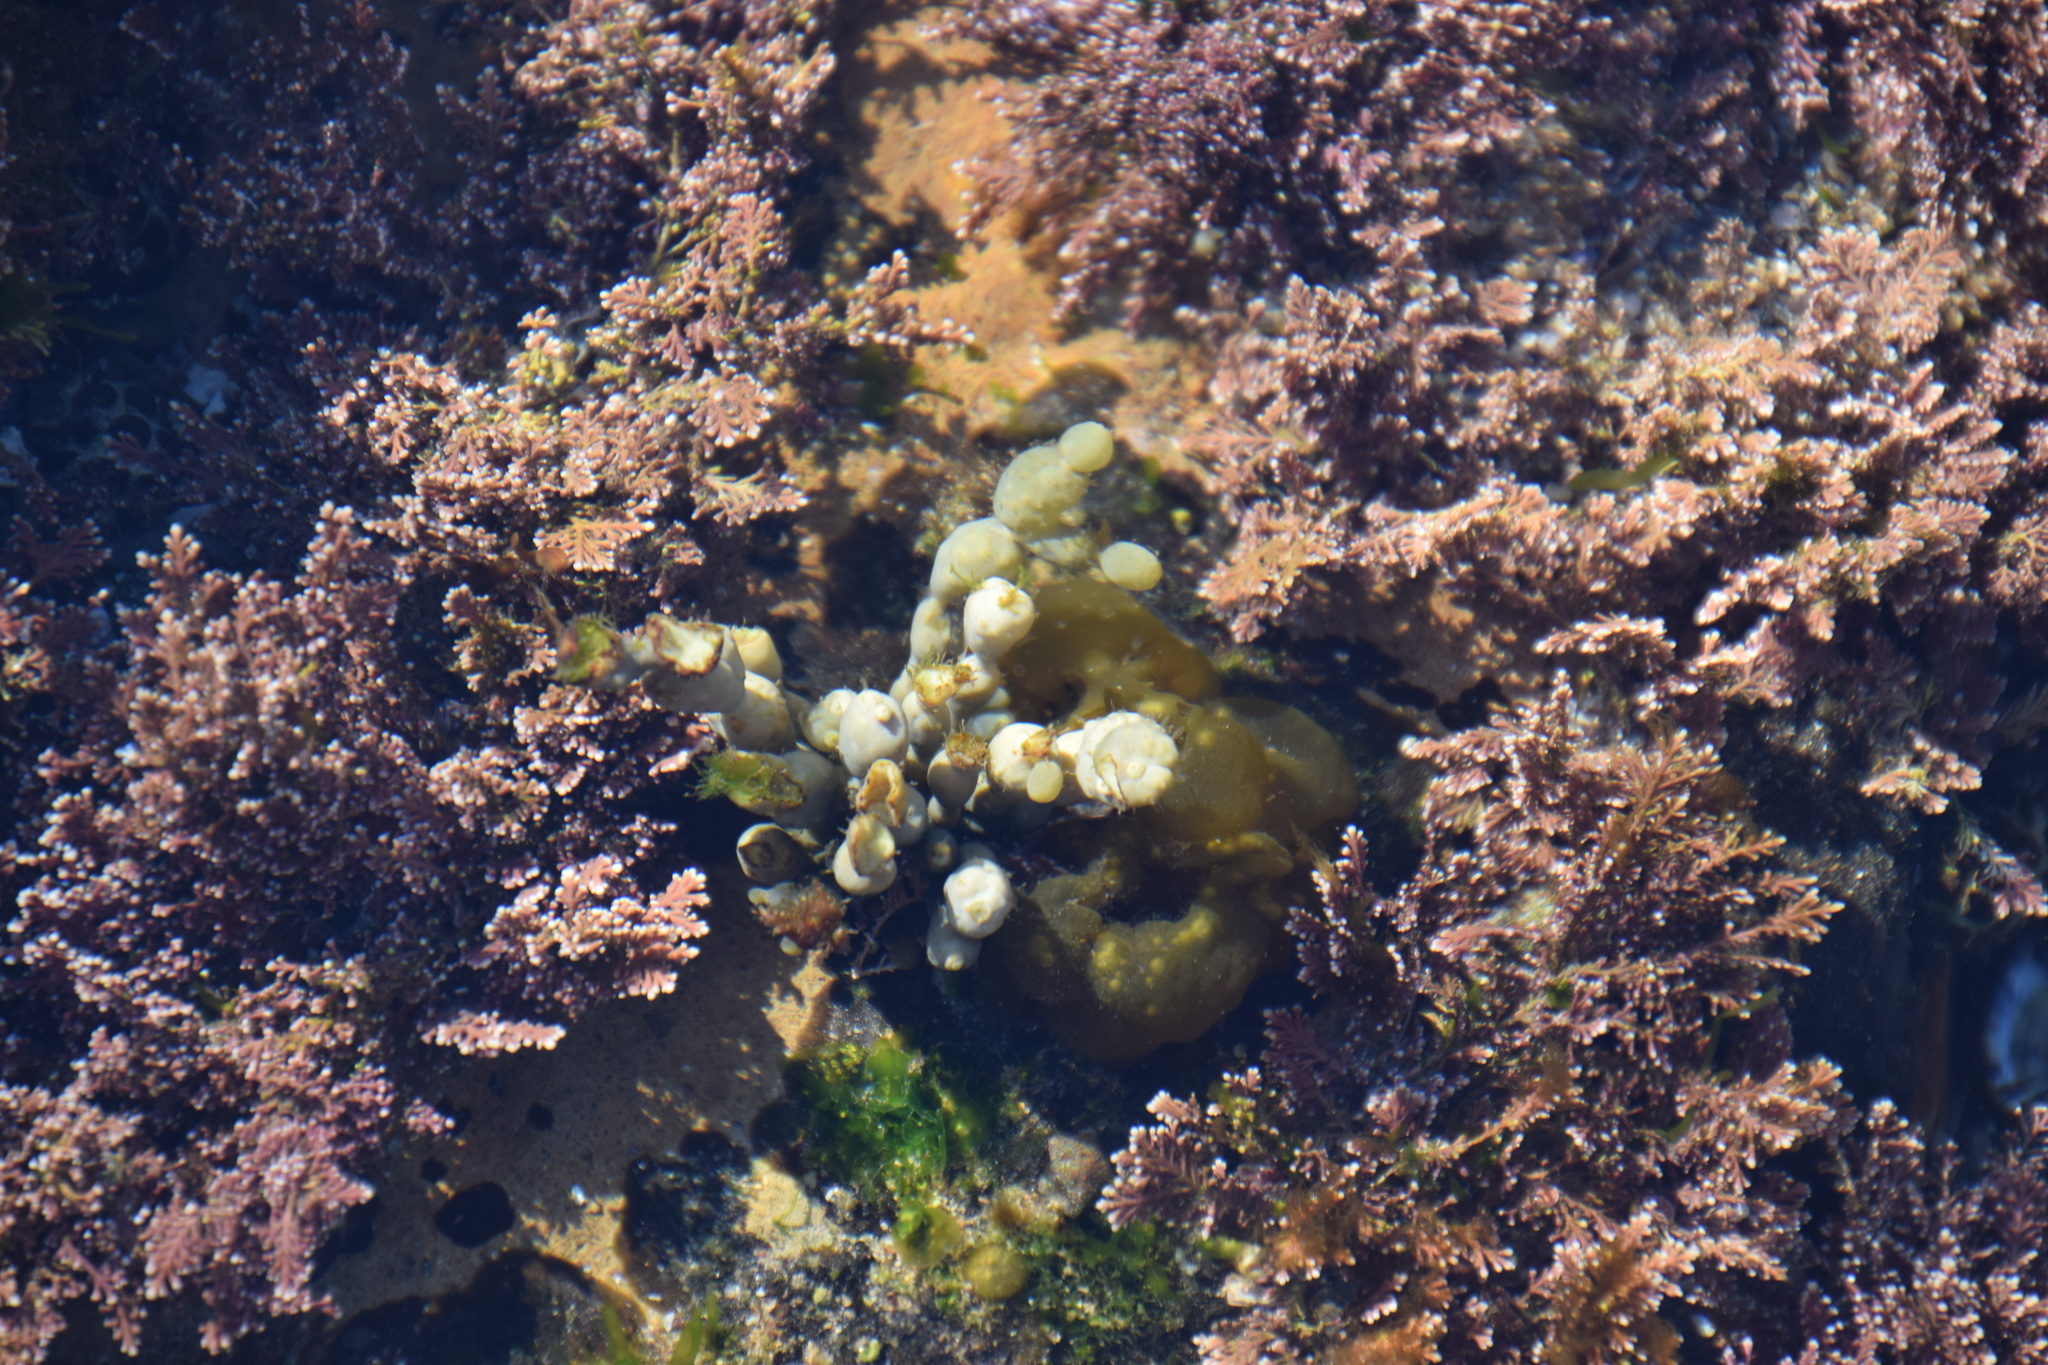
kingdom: Chromista
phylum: Ochrophyta
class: Phaeophyceae
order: Fucales
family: Hormosiraceae
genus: Hormosira
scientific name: Hormosira banksii
